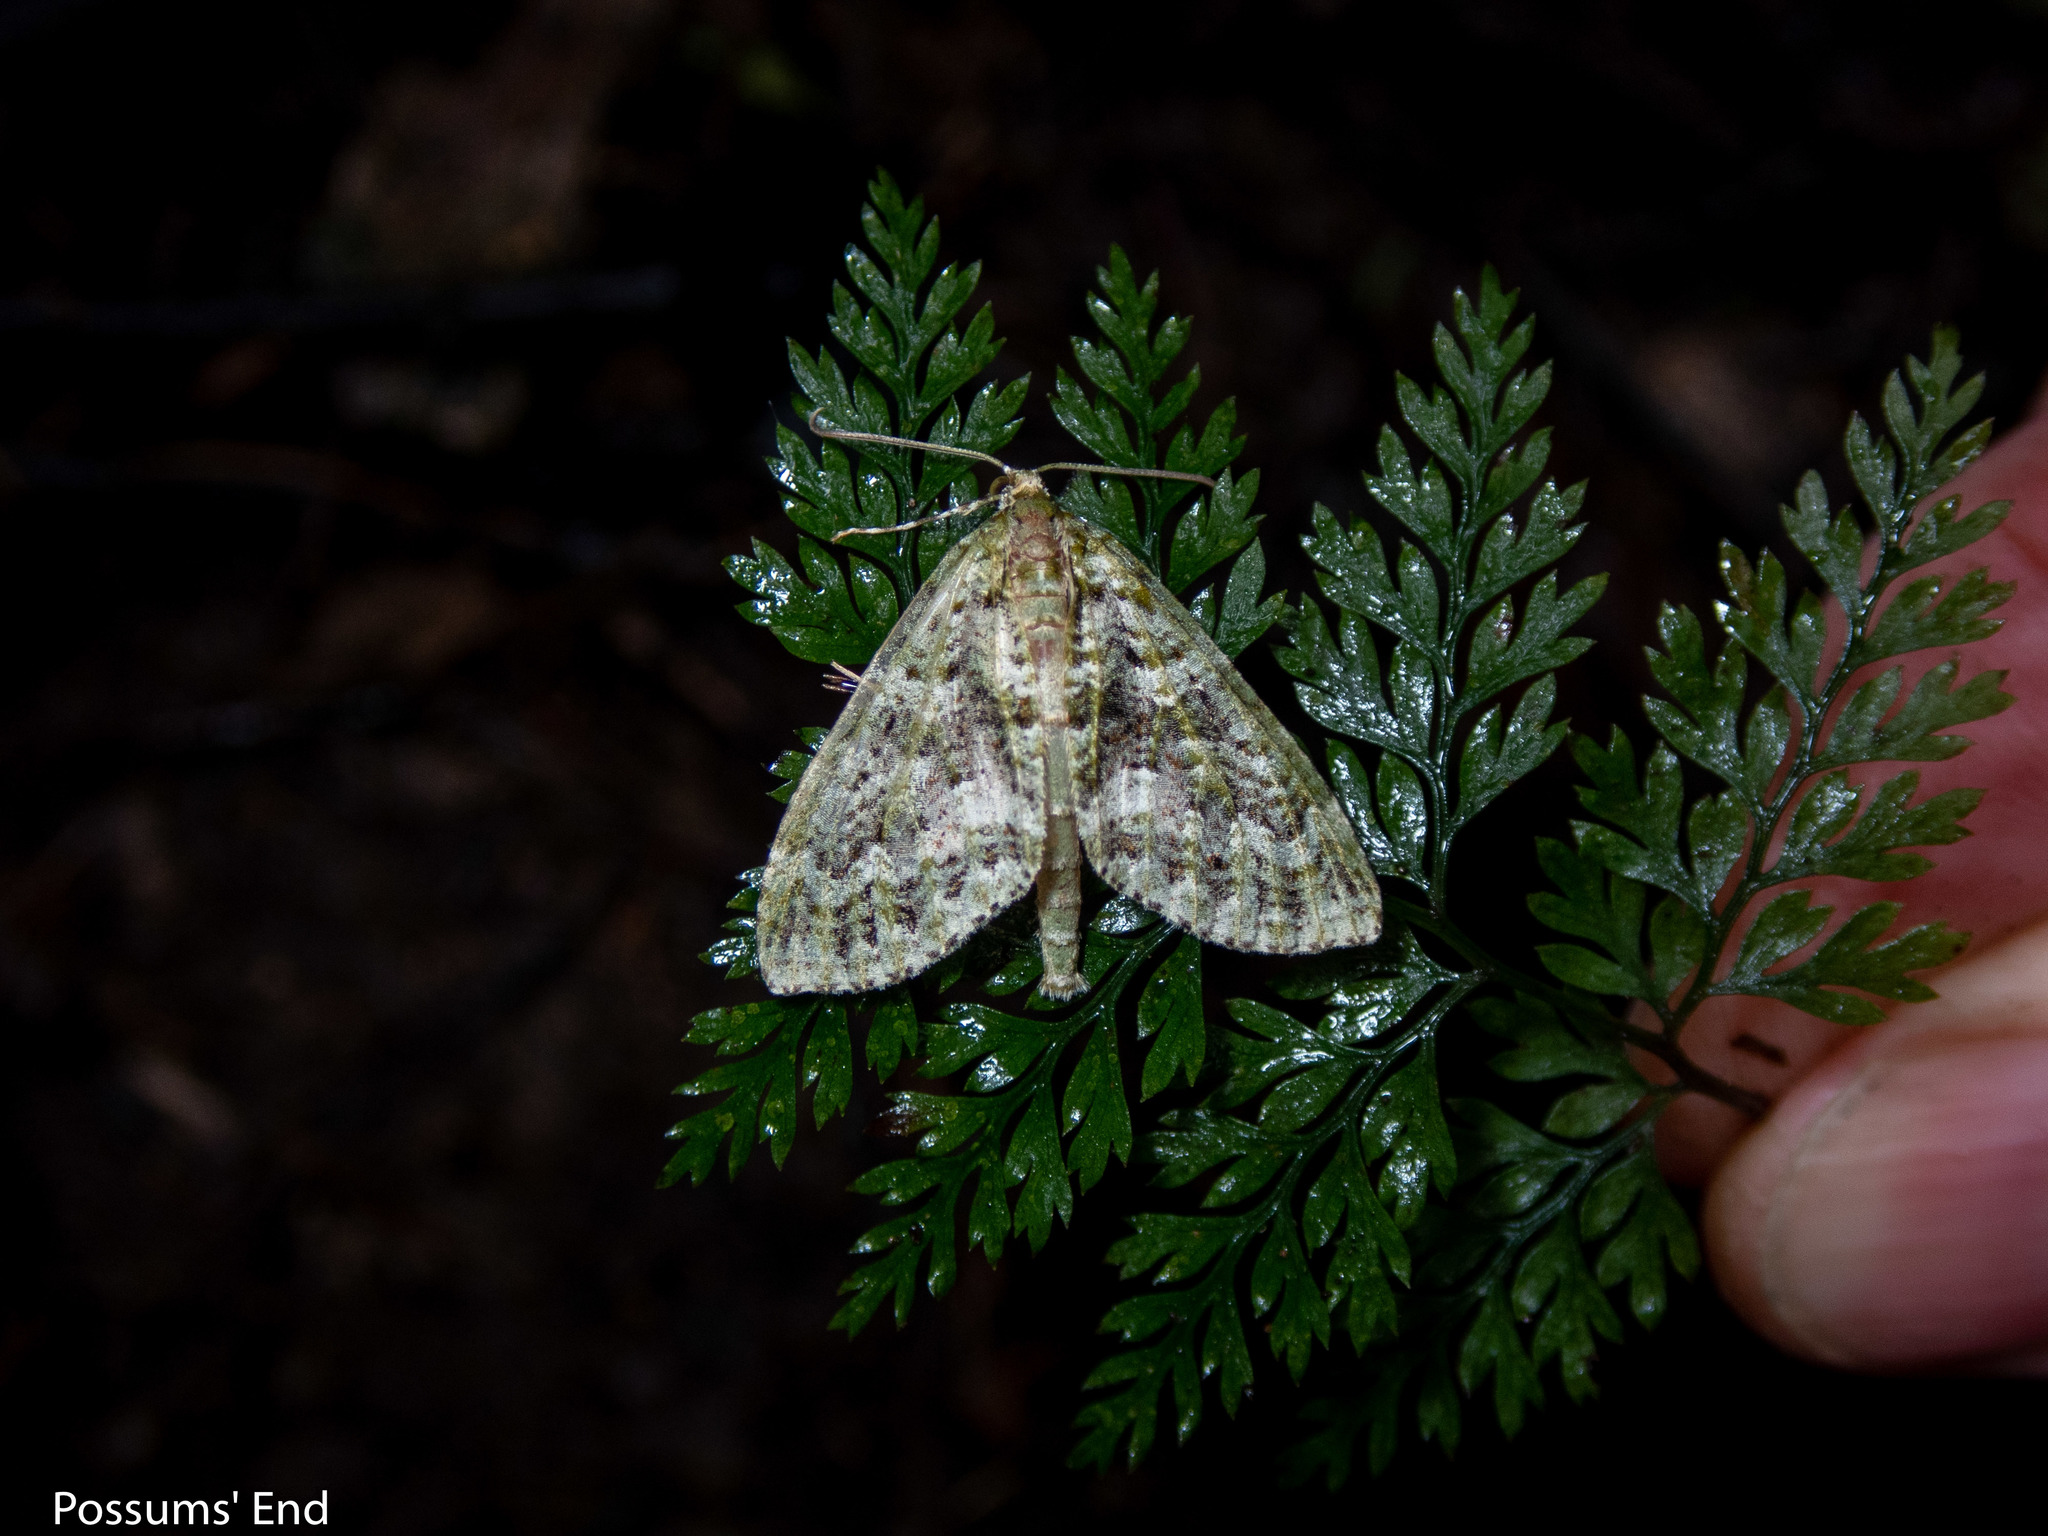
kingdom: Animalia
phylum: Arthropoda
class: Insecta
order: Lepidoptera
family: Geometridae
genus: Tatosoma
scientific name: Tatosoma agrionata
